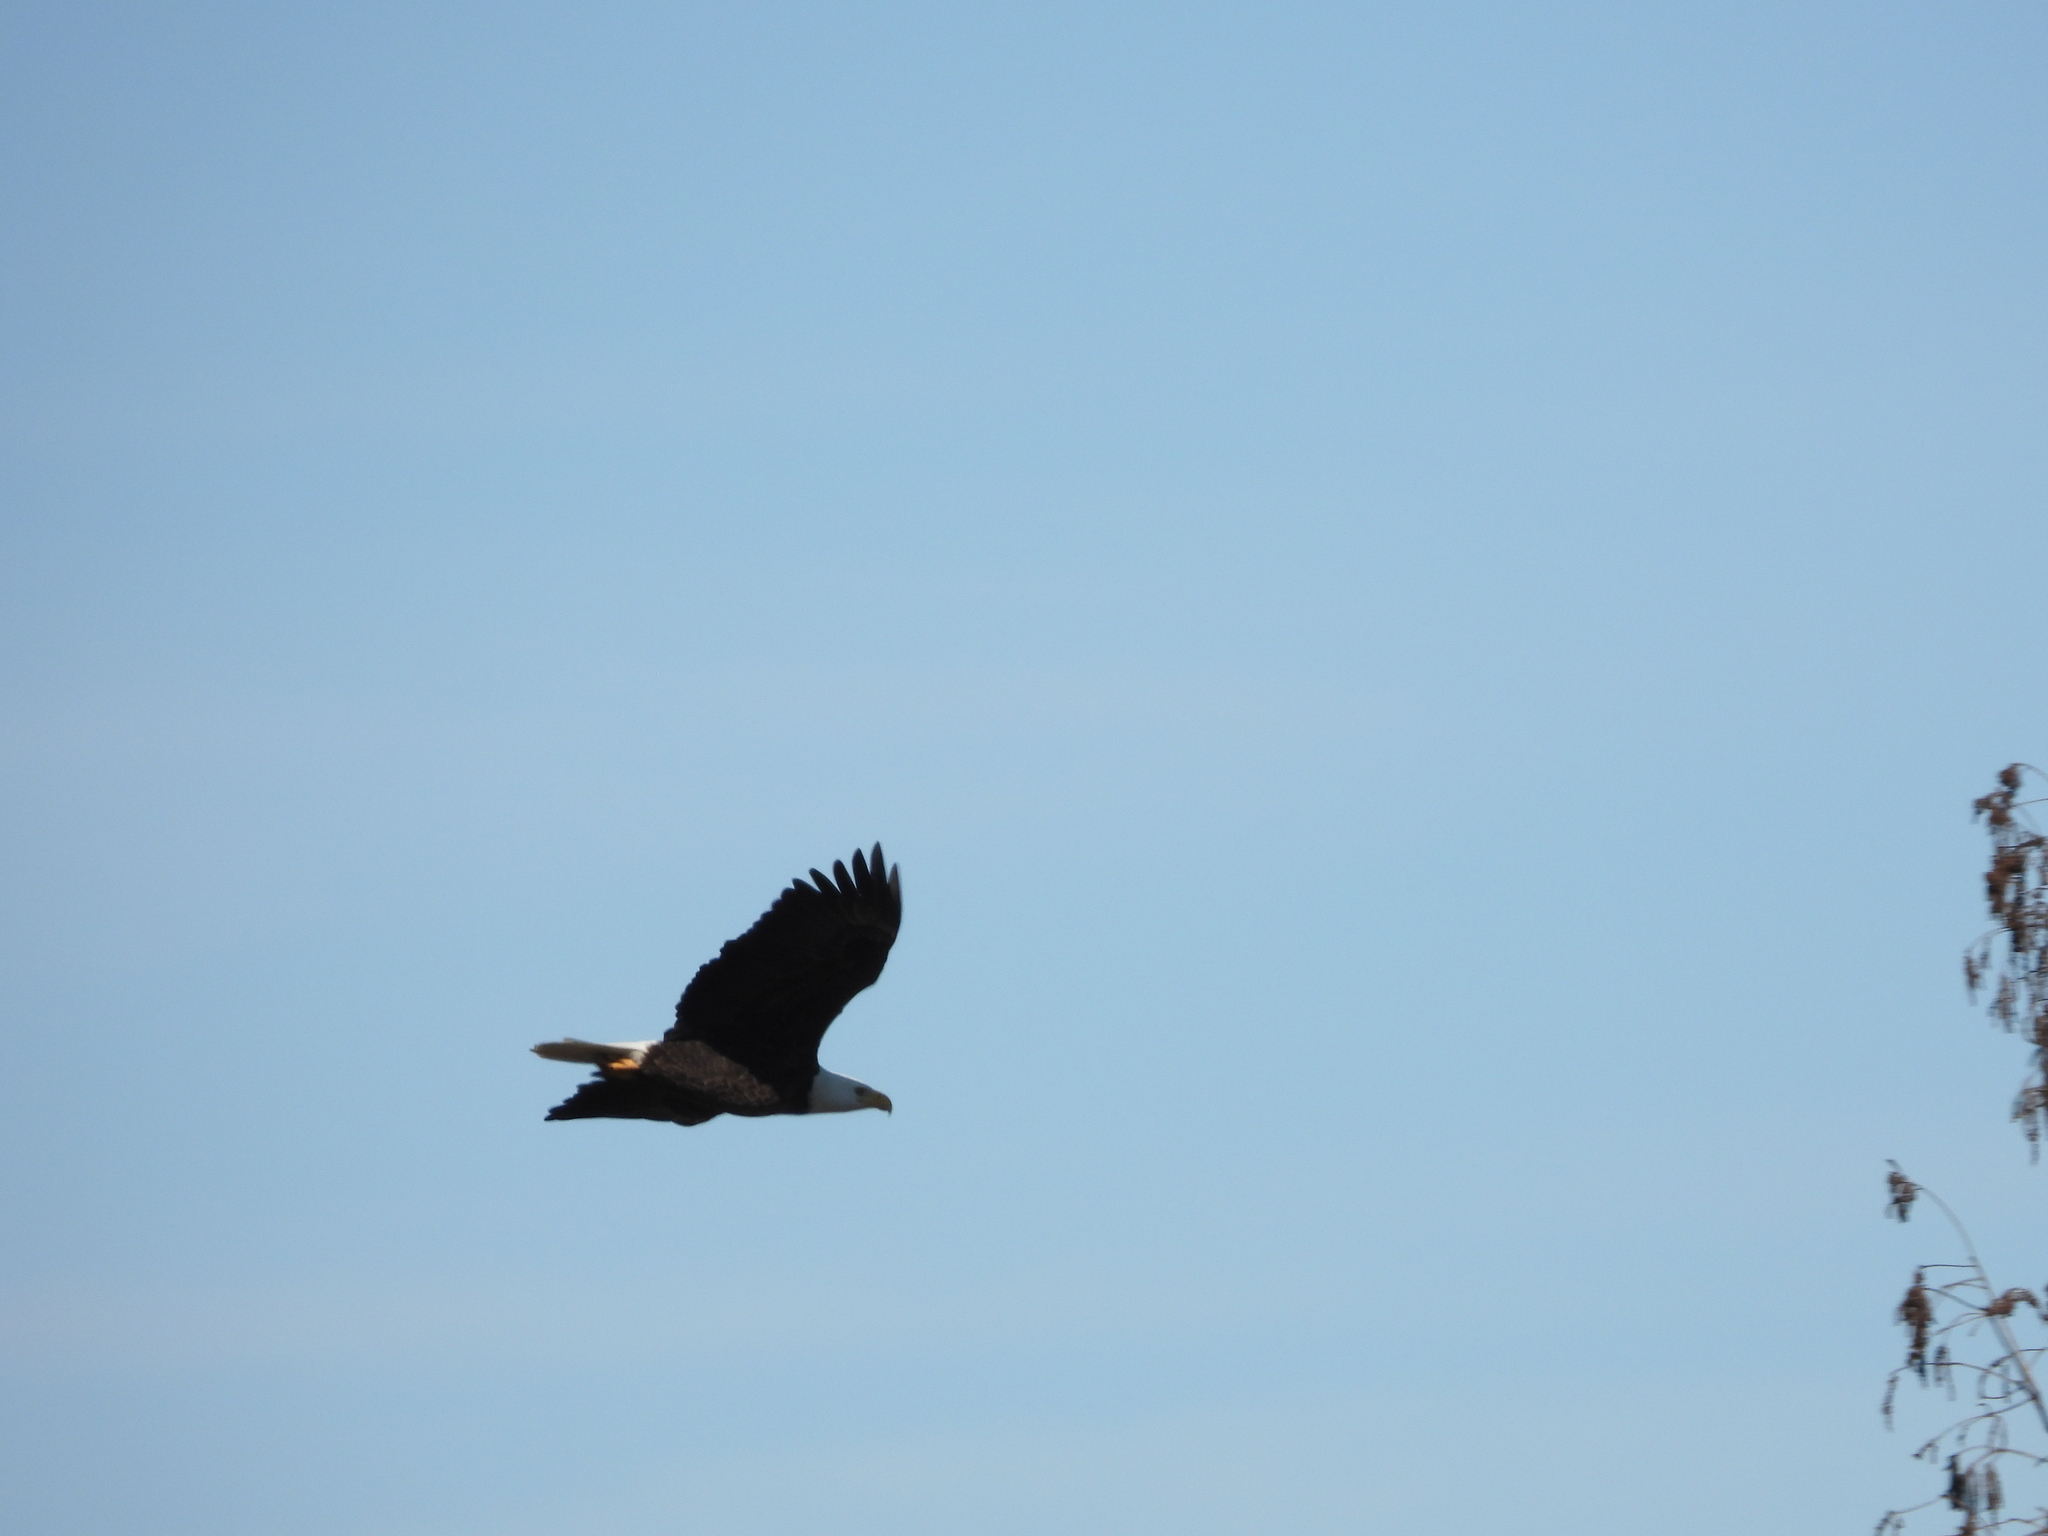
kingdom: Animalia
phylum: Chordata
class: Aves
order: Accipitriformes
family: Accipitridae
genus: Haliaeetus
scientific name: Haliaeetus leucocephalus
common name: Bald eagle
